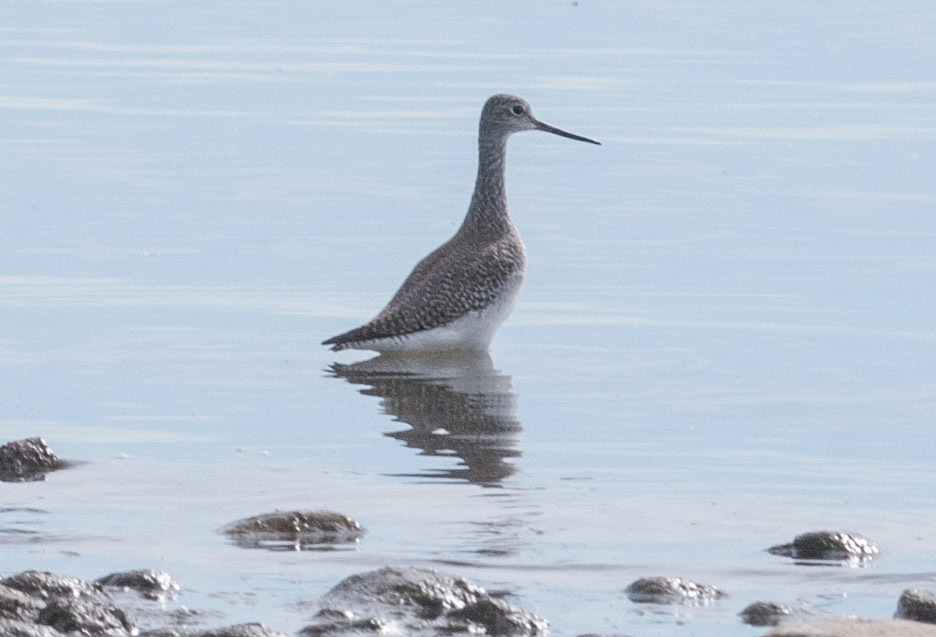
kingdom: Animalia
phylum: Chordata
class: Aves
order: Charadriiformes
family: Scolopacidae
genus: Tringa
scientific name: Tringa melanoleuca
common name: Greater yellowlegs
